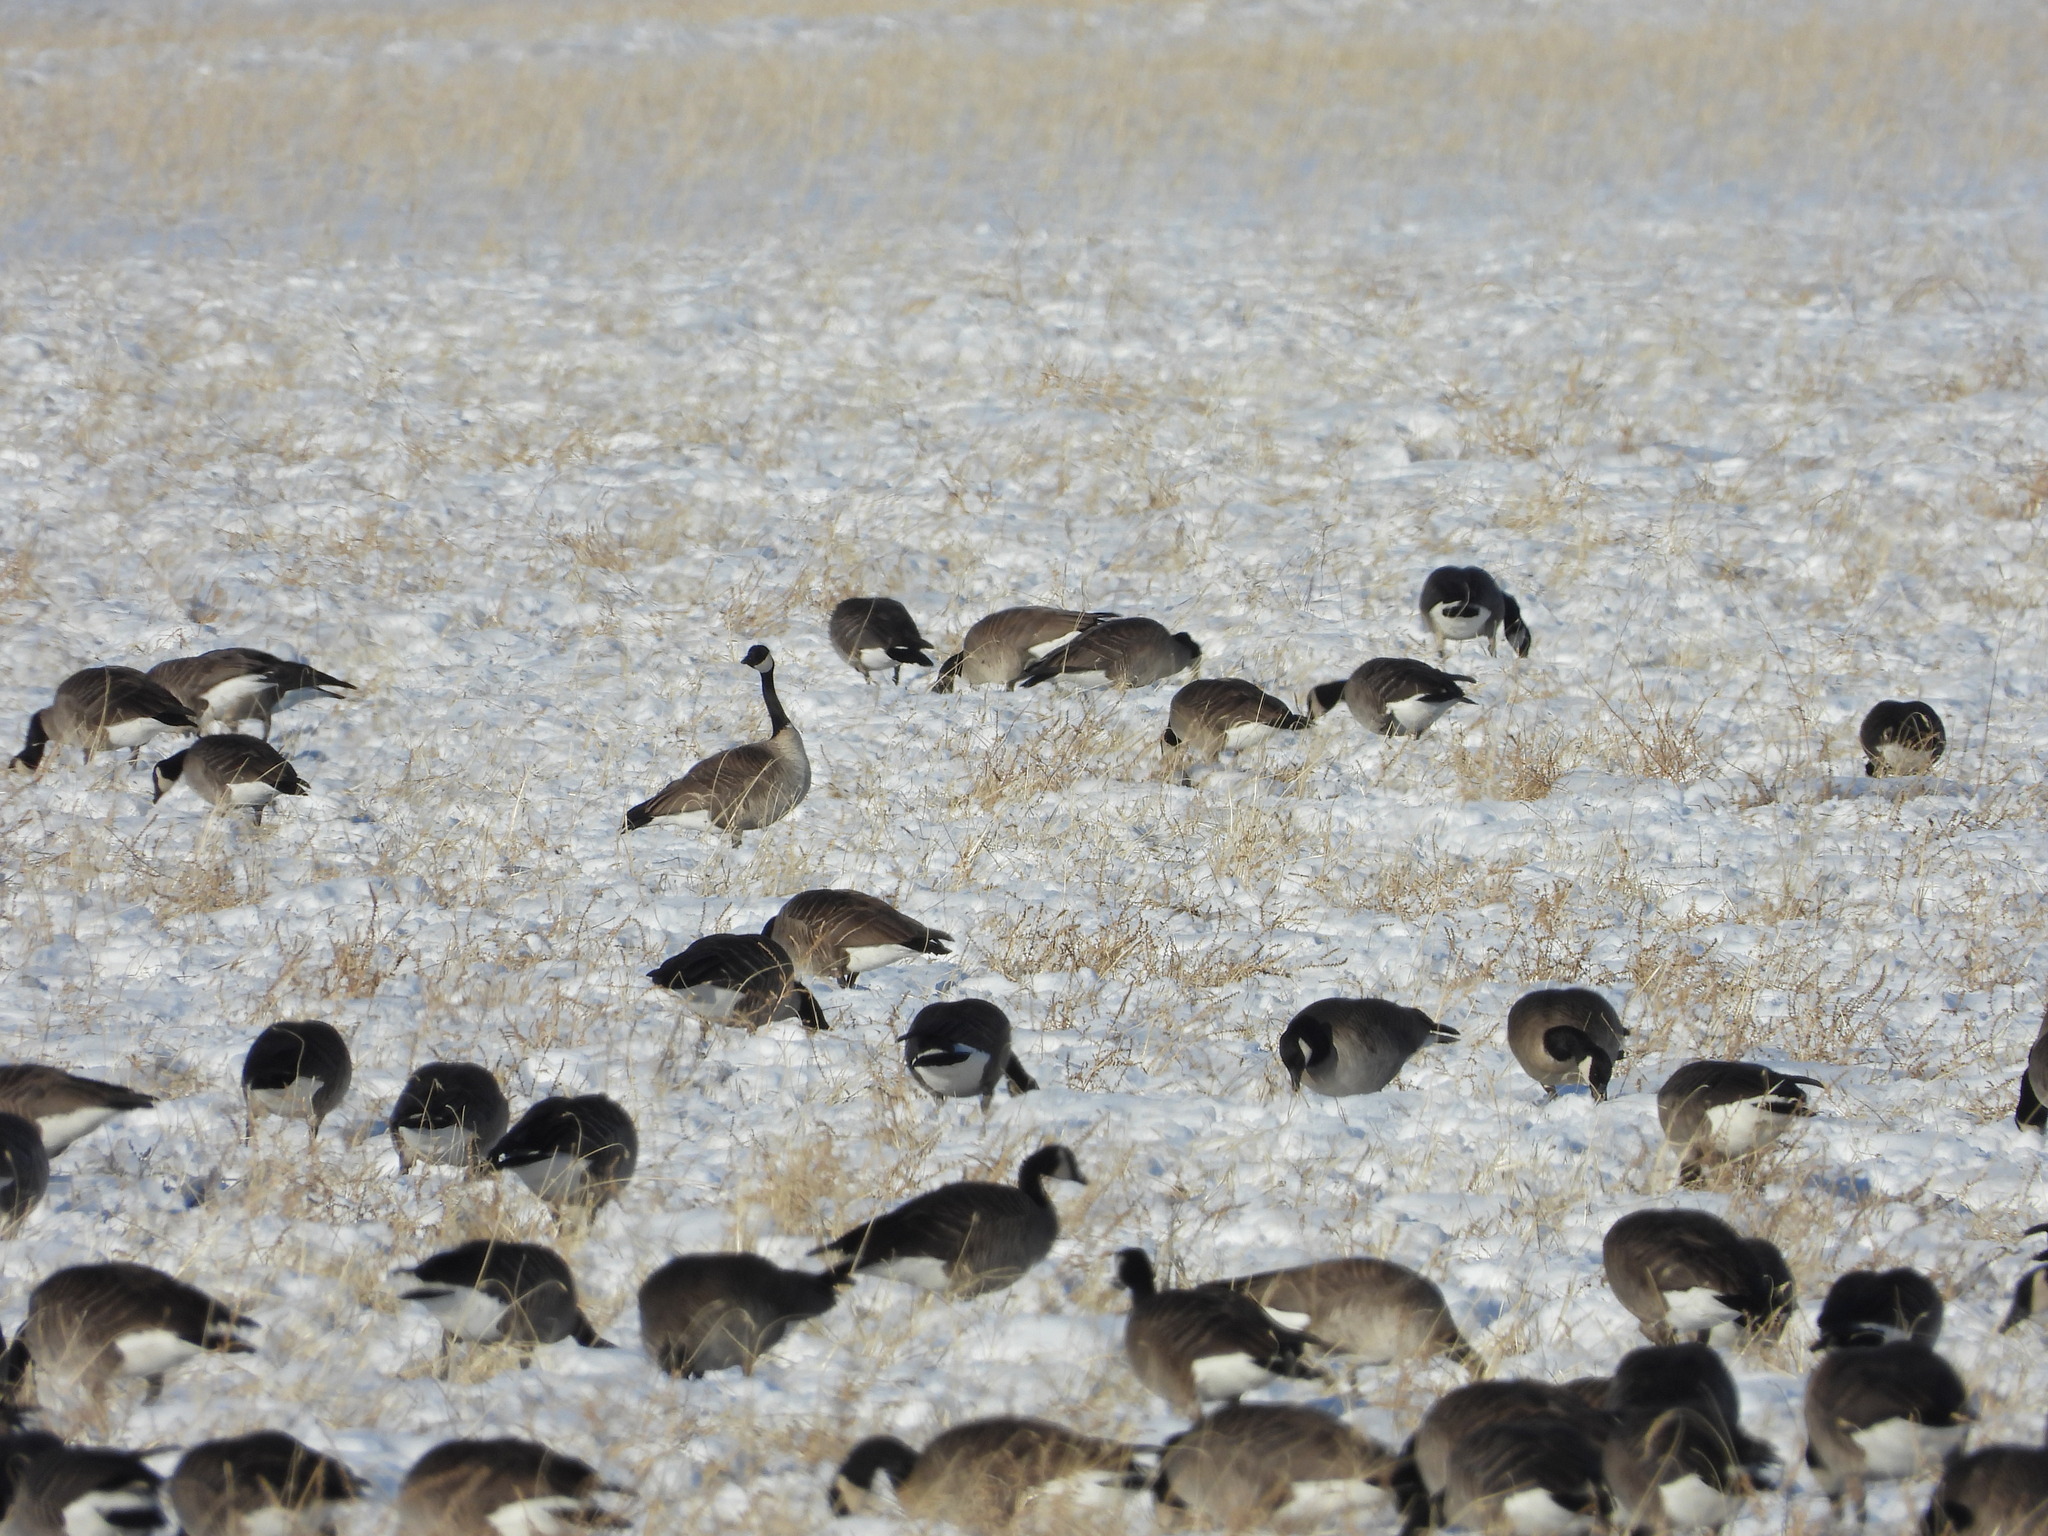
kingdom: Animalia
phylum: Chordata
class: Aves
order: Anseriformes
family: Anatidae
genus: Branta
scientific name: Branta canadensis
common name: Canada goose
